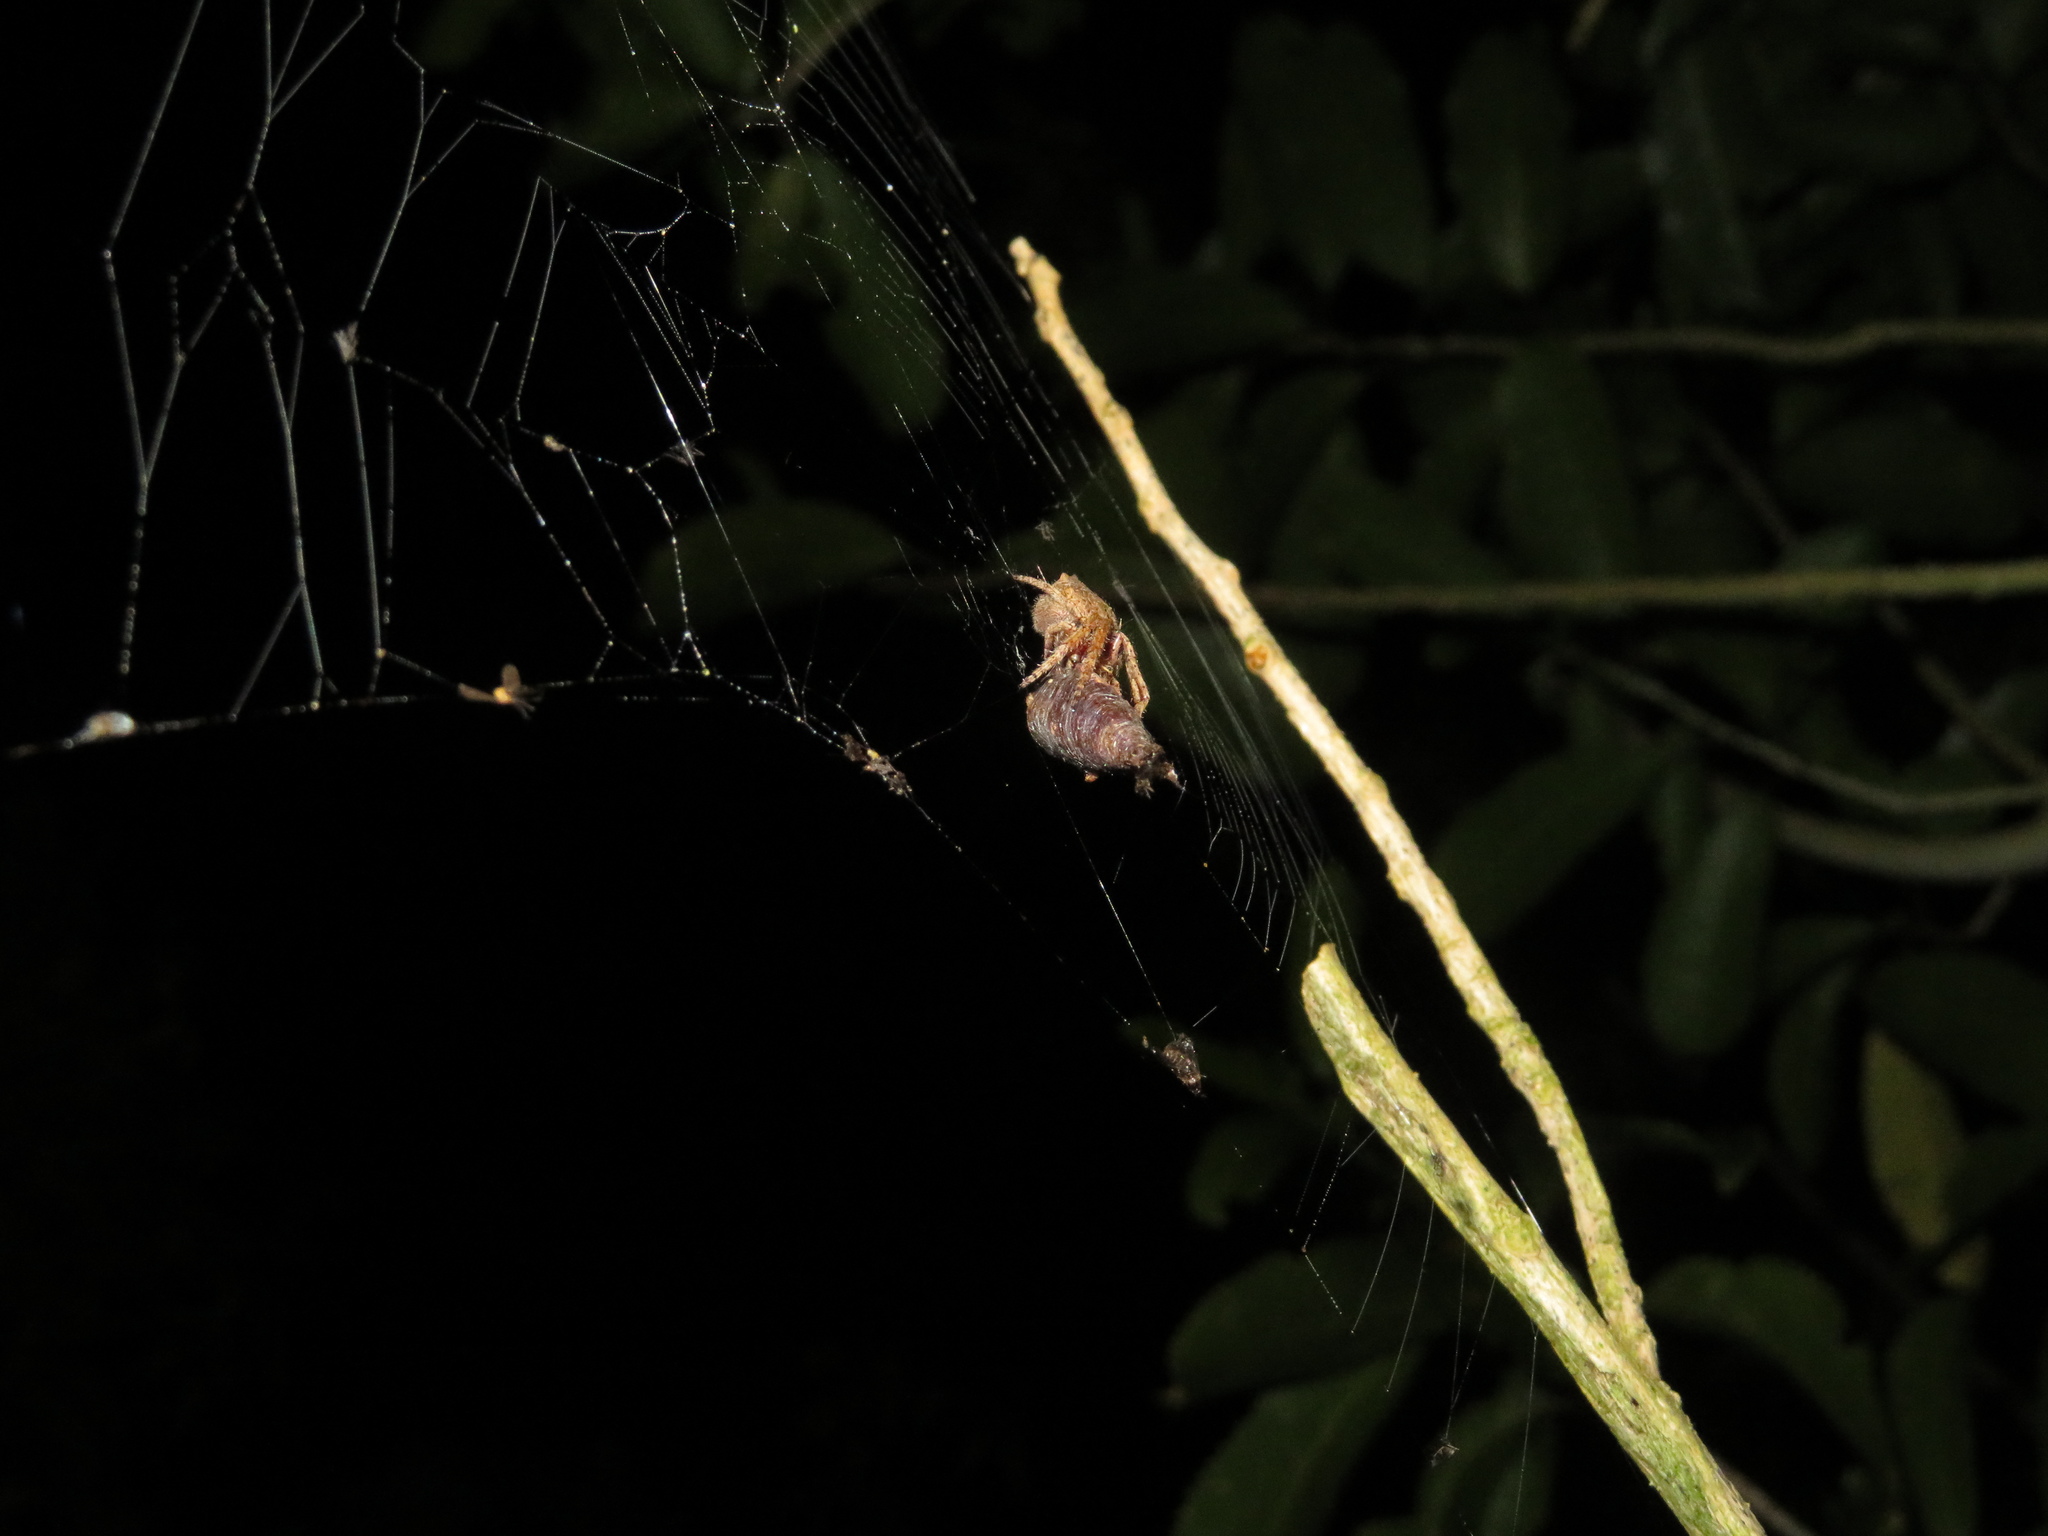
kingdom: Animalia
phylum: Arthropoda
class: Arachnida
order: Araneae
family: Araneidae
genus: Eriophora
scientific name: Eriophora pustulosa
